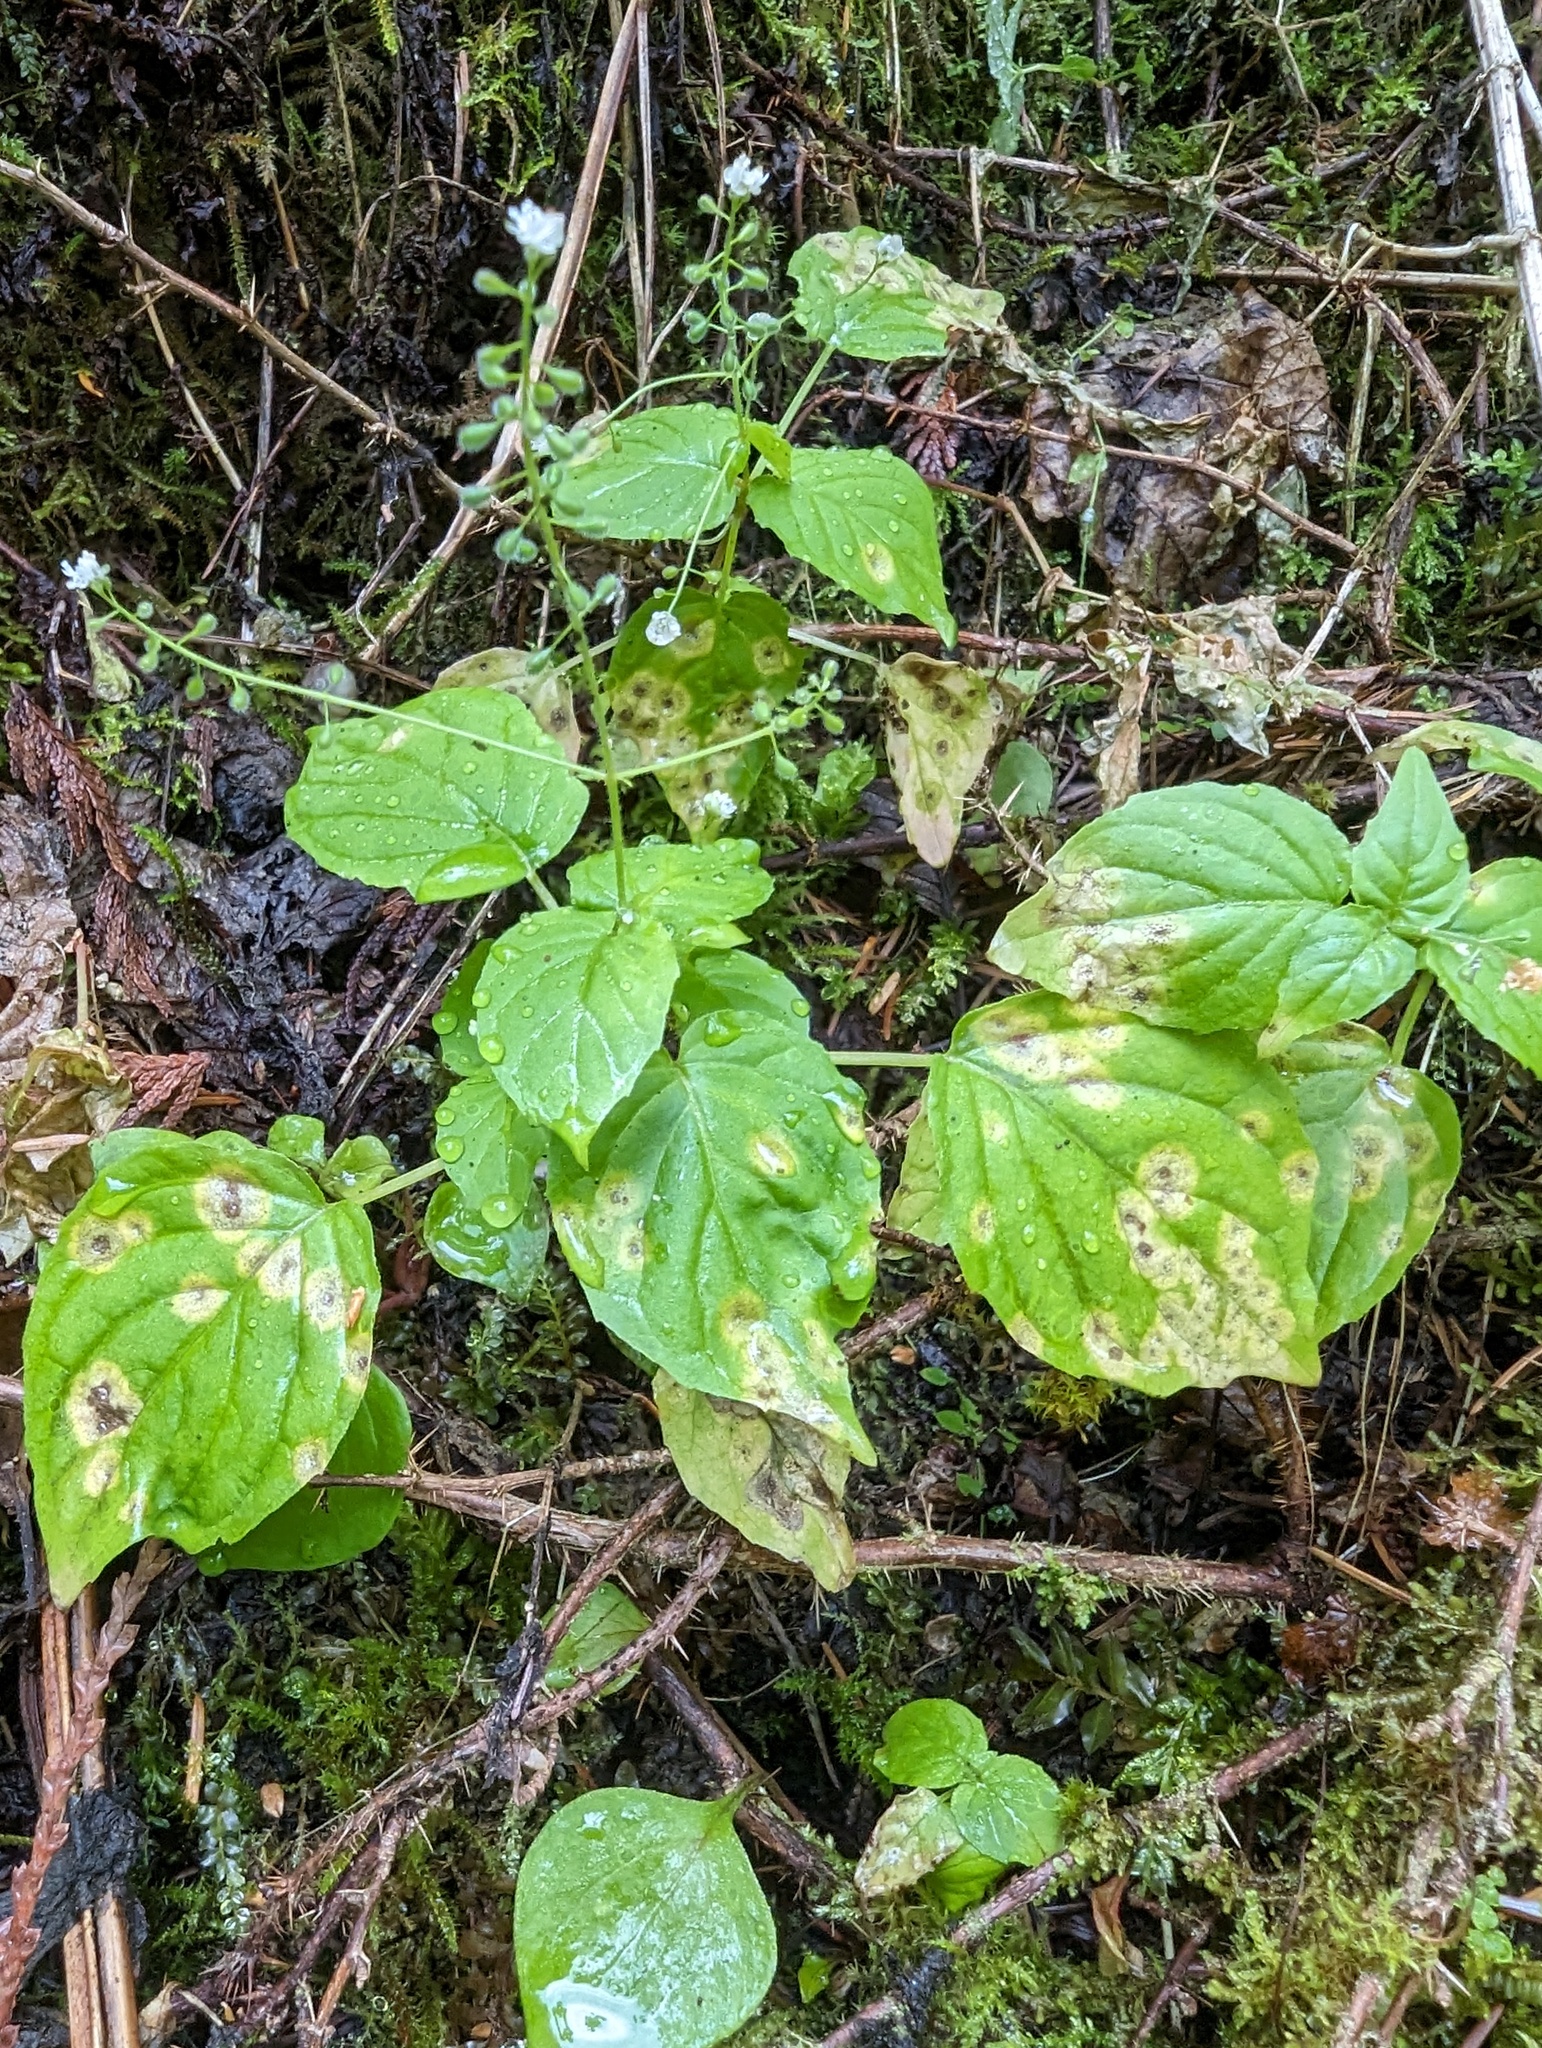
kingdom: Plantae
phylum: Tracheophyta
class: Magnoliopsida
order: Myrtales
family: Onagraceae
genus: Circaea
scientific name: Circaea alpina
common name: Alpine enchanter's-nightshade
